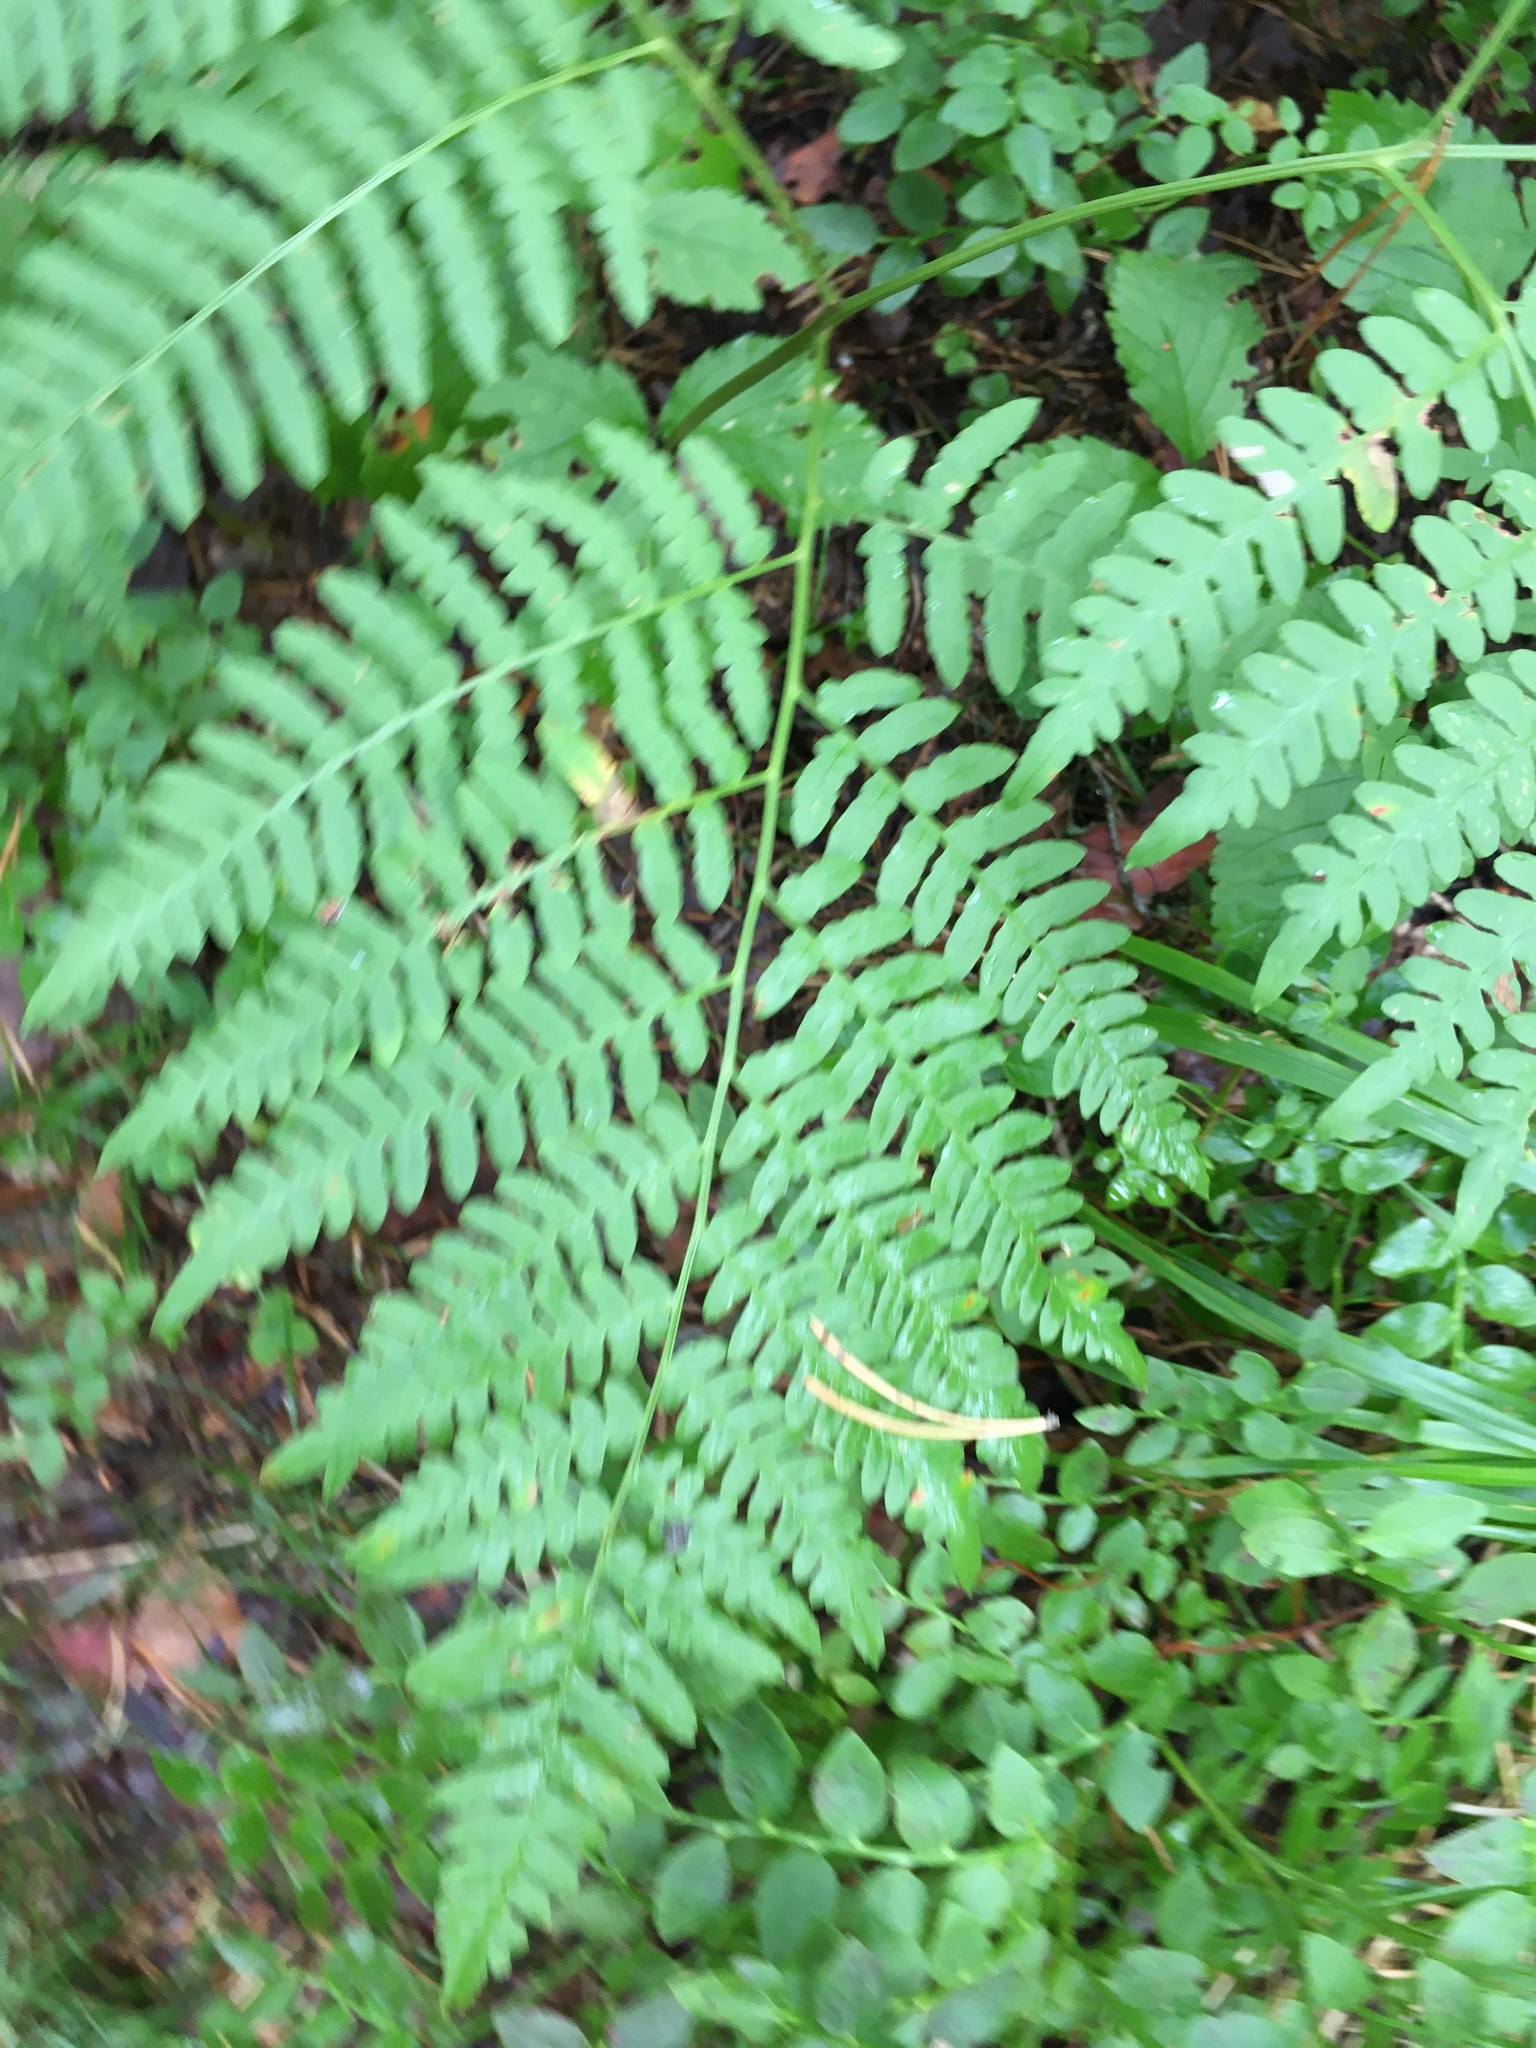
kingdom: Plantae
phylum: Tracheophyta
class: Polypodiopsida
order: Polypodiales
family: Dennstaedtiaceae
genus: Pteridium
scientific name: Pteridium aquilinum
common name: Bracken
